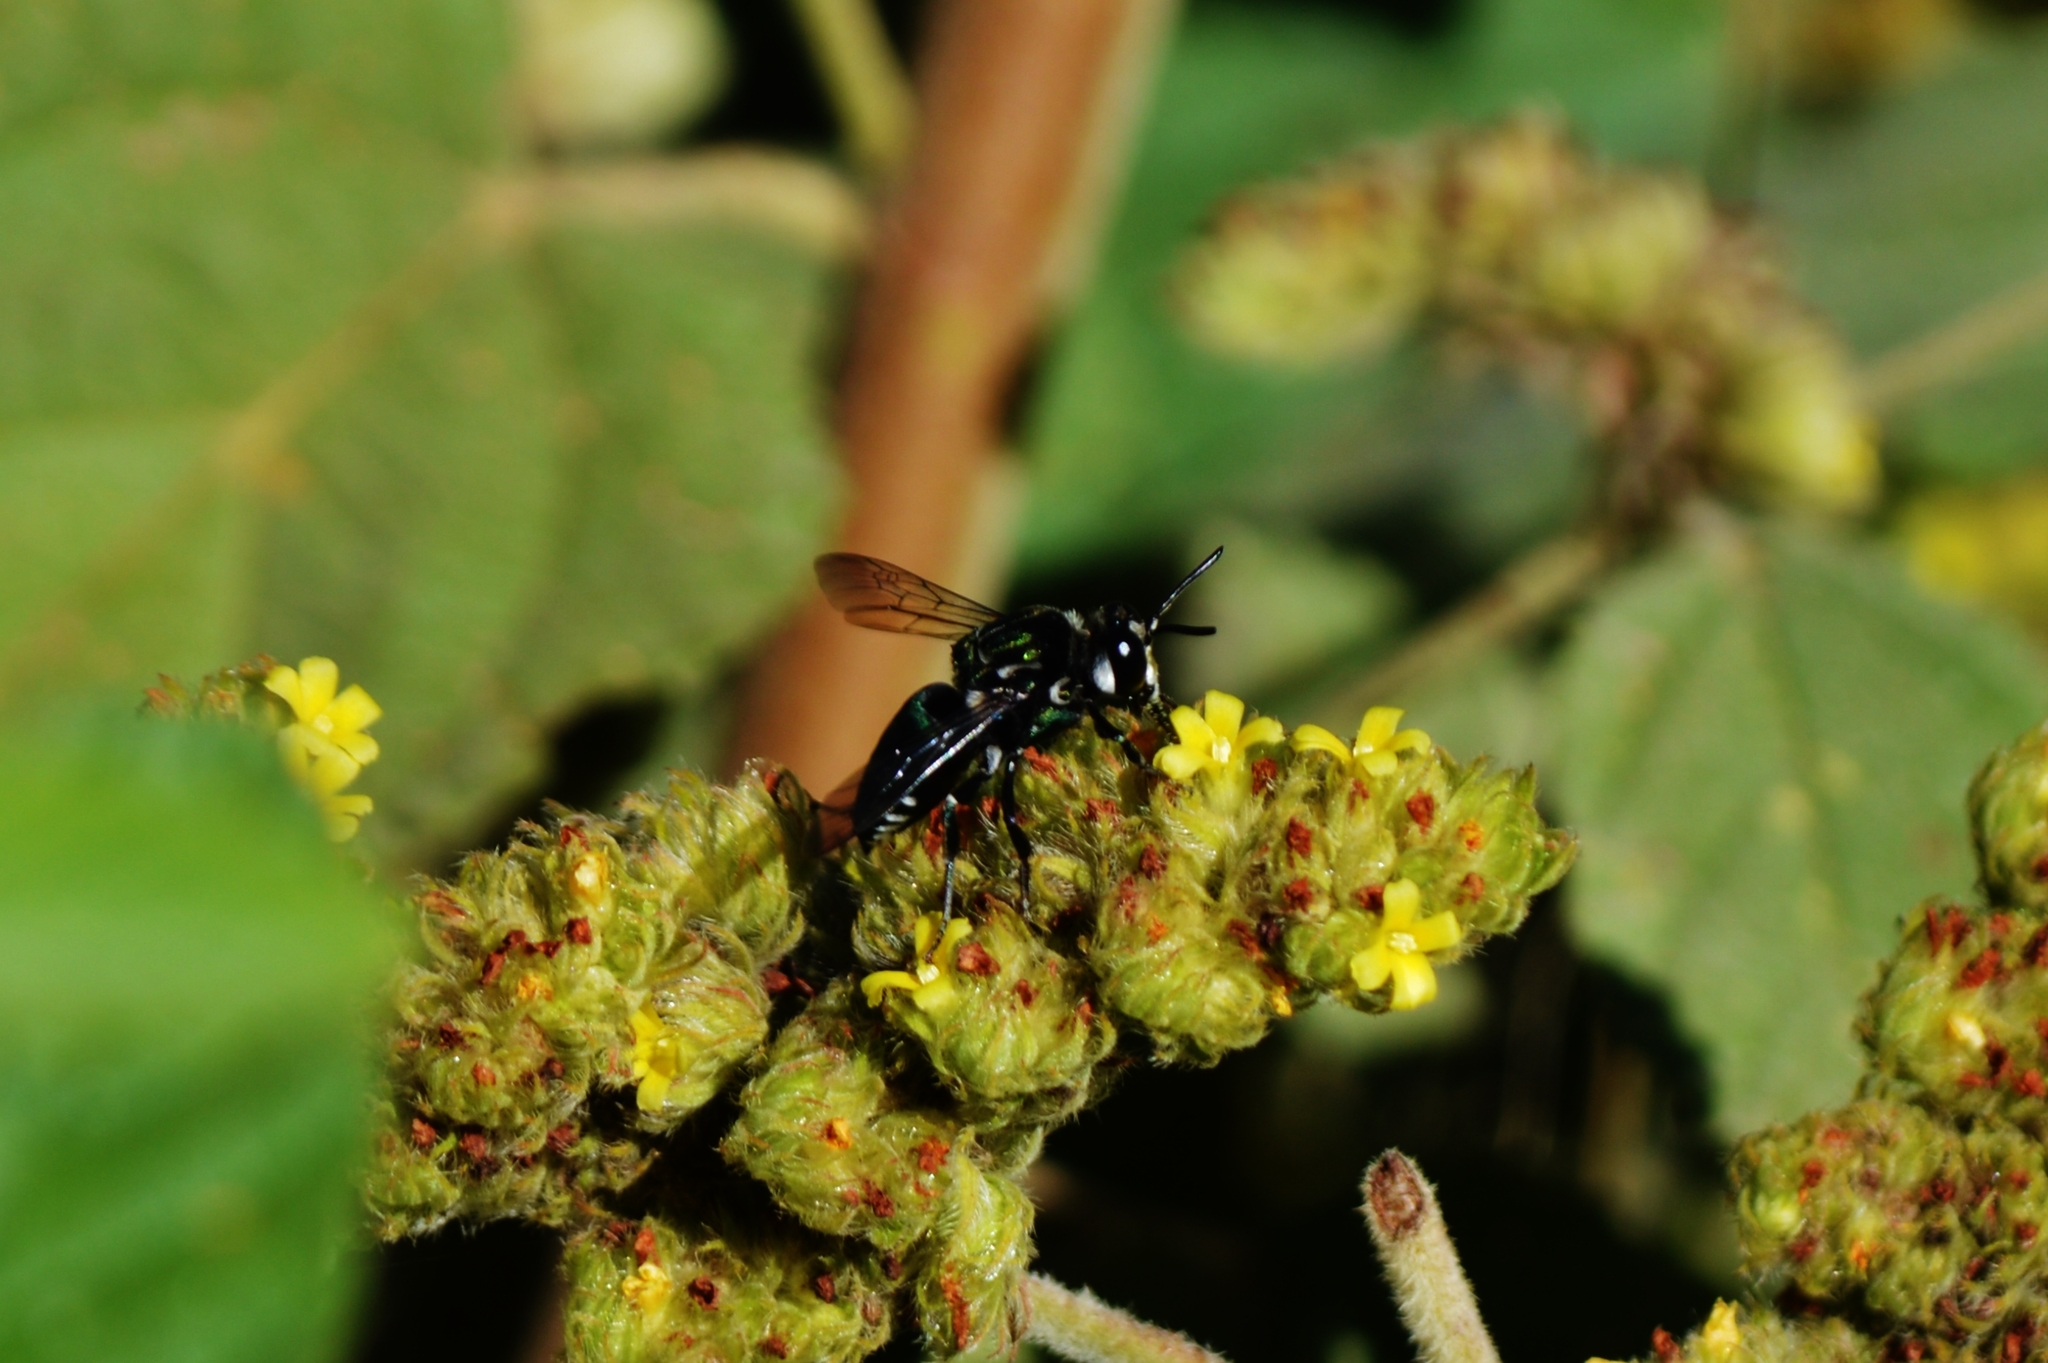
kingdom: Animalia
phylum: Arthropoda
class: Insecta
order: Hymenoptera
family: Apidae
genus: Thalestria
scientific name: Thalestria spinosa
